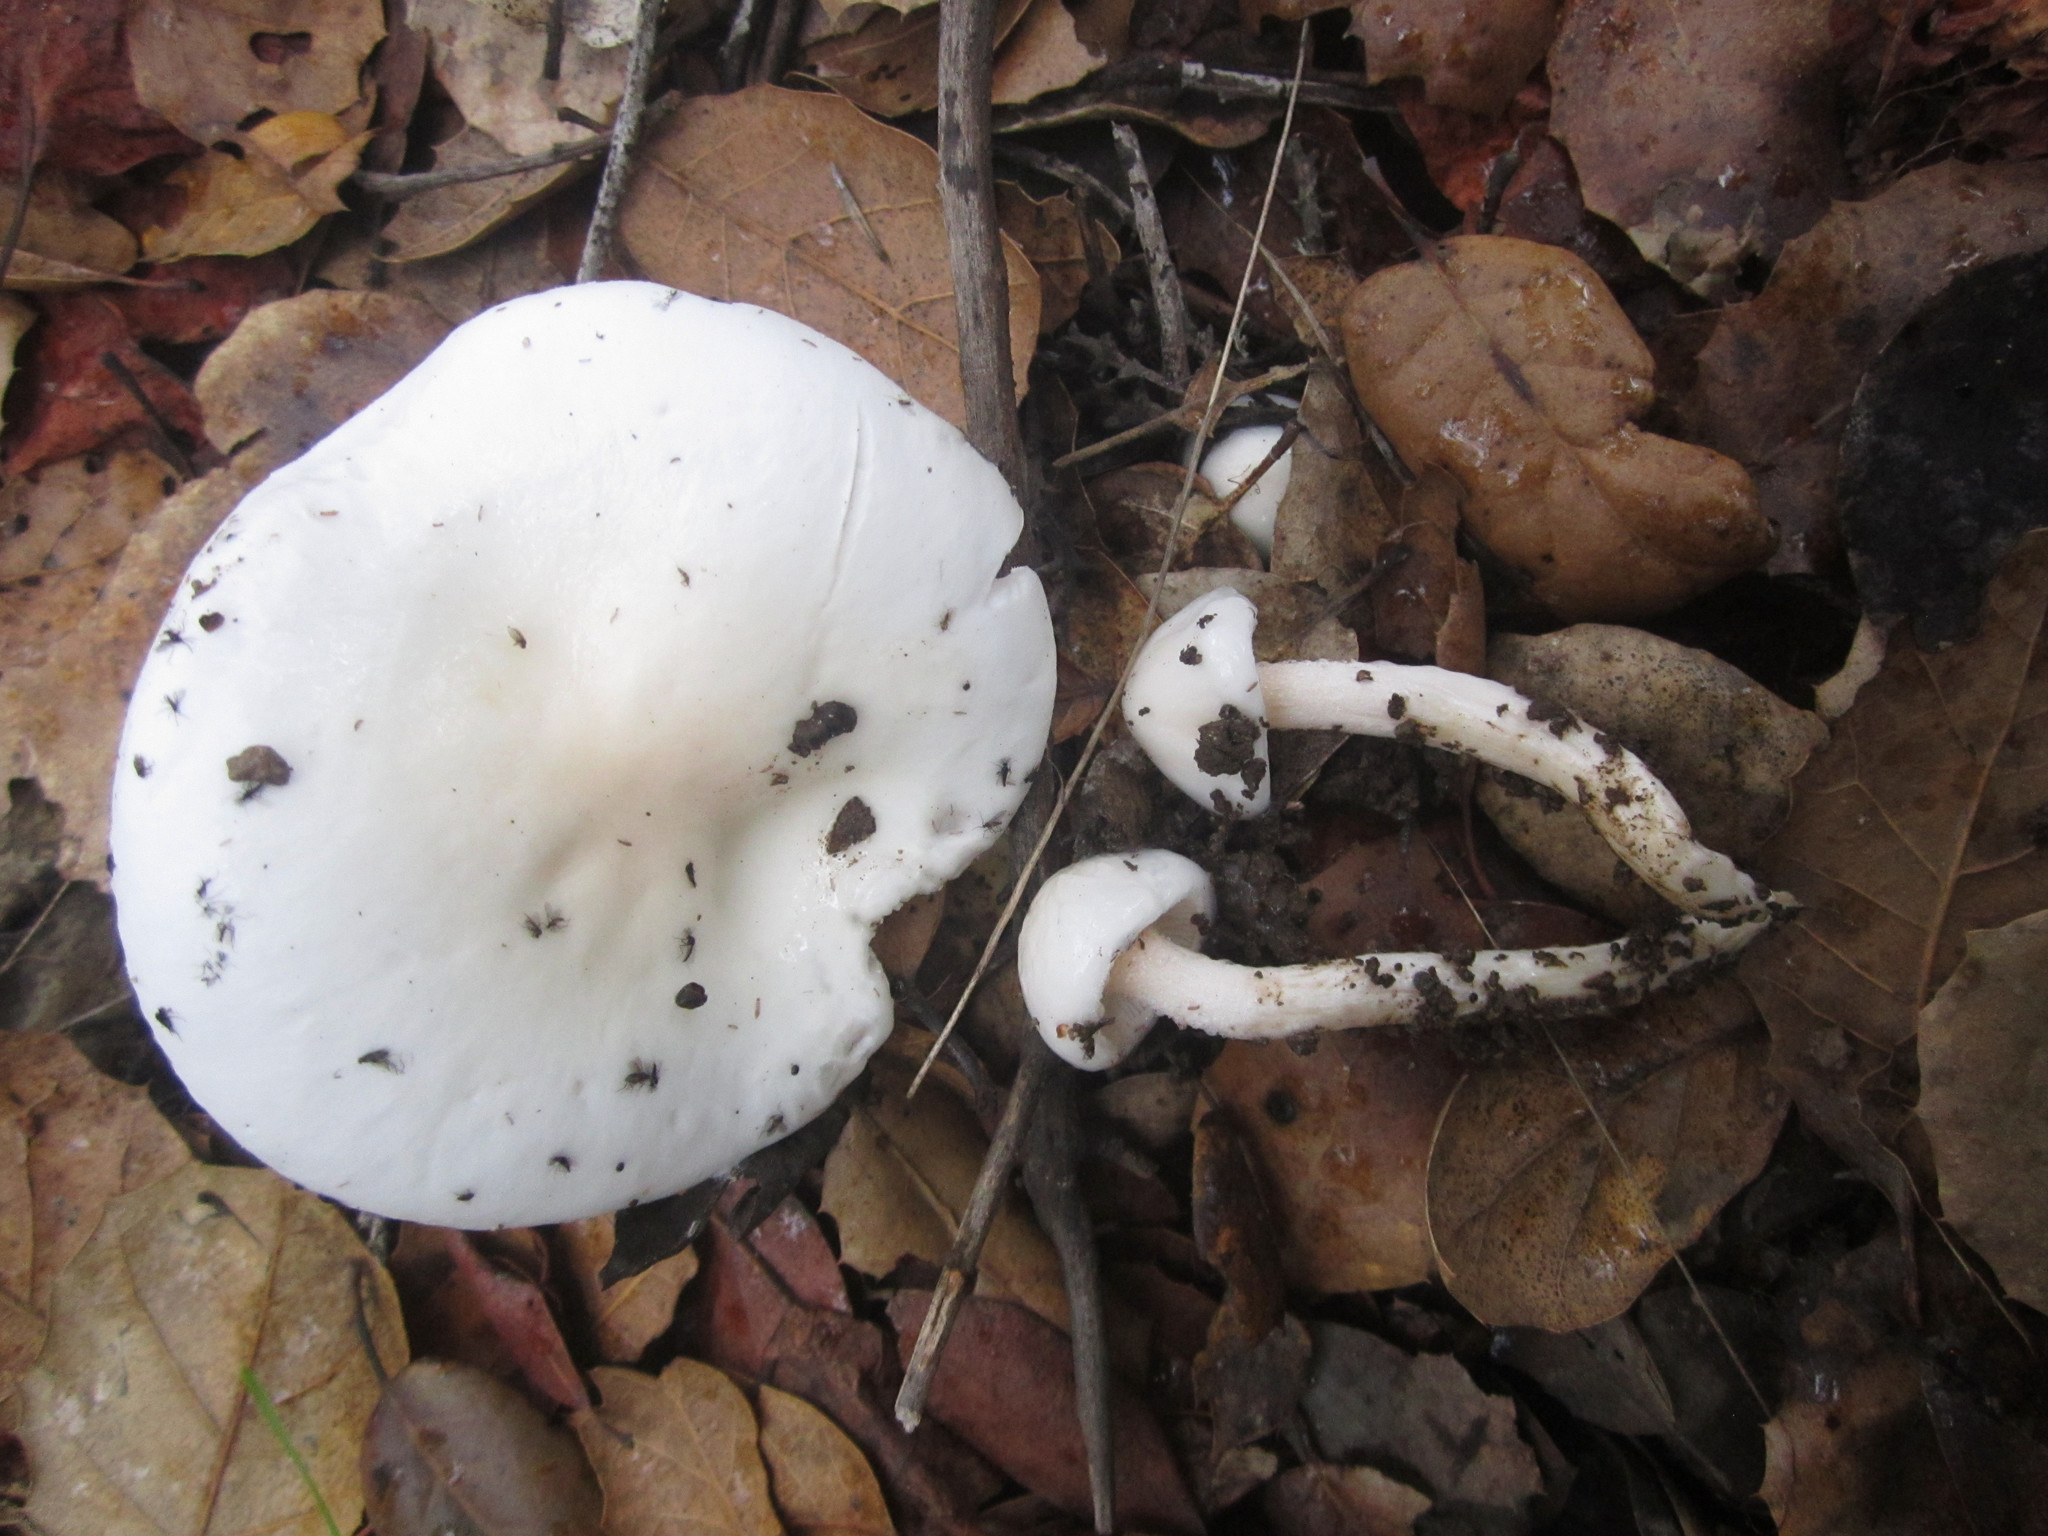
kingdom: Fungi
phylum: Basidiomycota
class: Agaricomycetes
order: Agaricales
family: Hygrophoraceae
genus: Hygrophorus
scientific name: Hygrophorus eburneus
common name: Ivory wax-cap
